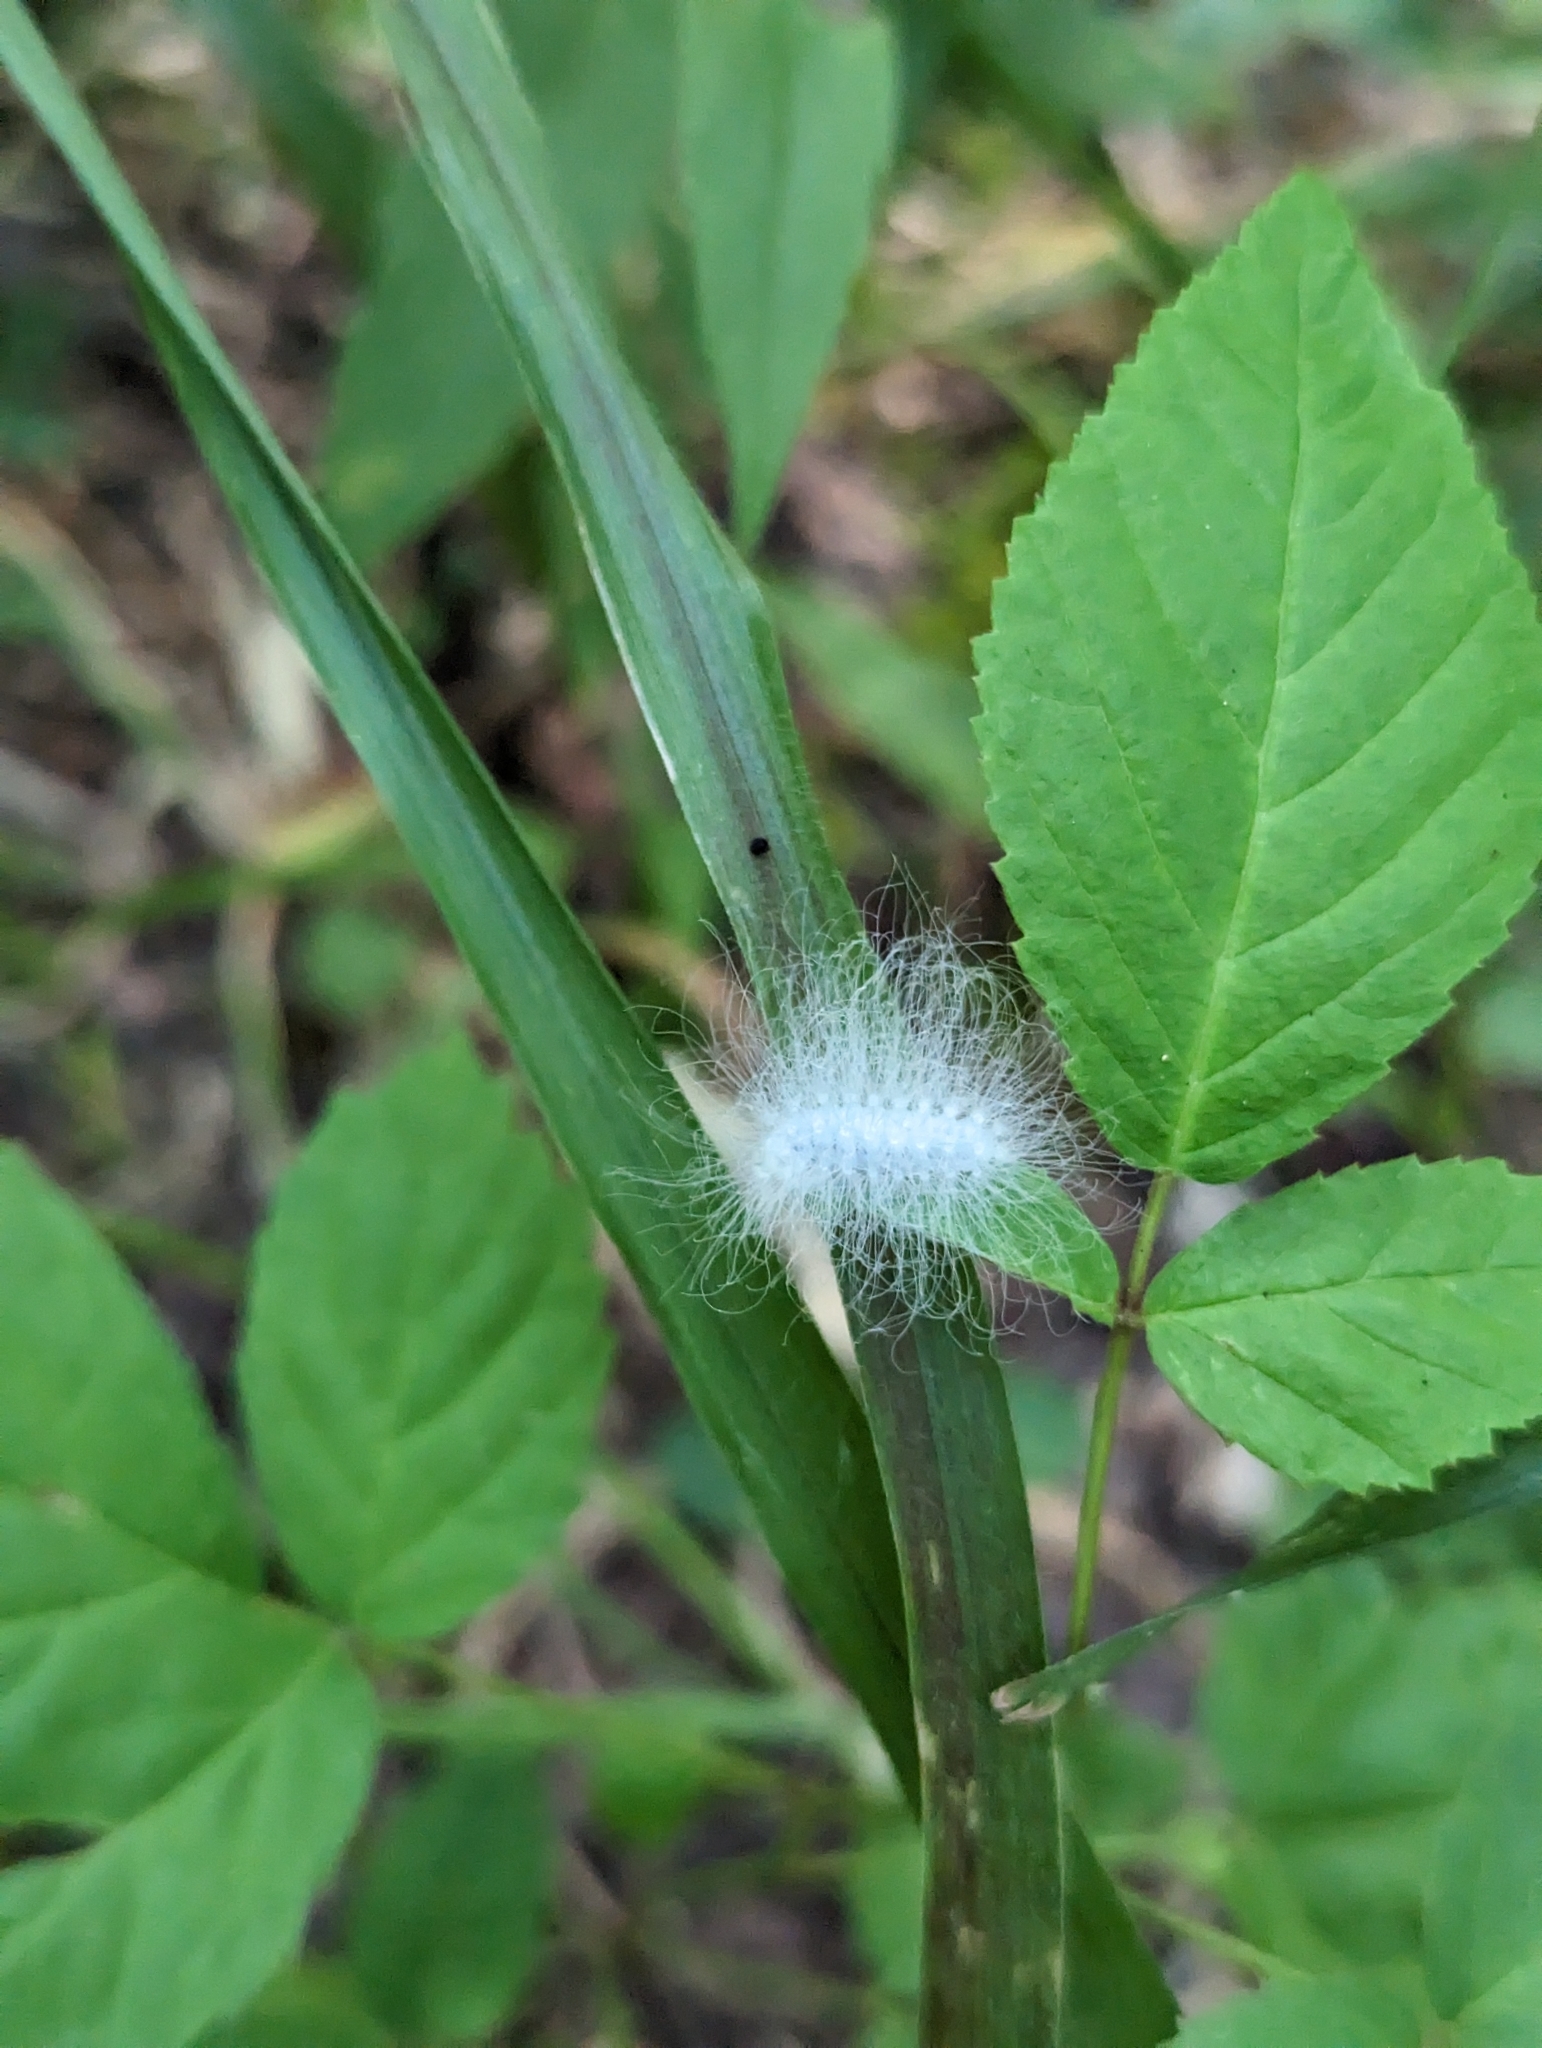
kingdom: Animalia
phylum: Arthropoda
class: Insecta
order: Lepidoptera
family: Megalopygidae
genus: Megalopyge
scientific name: Megalopyge crispata
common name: Black-waved flannel moth
